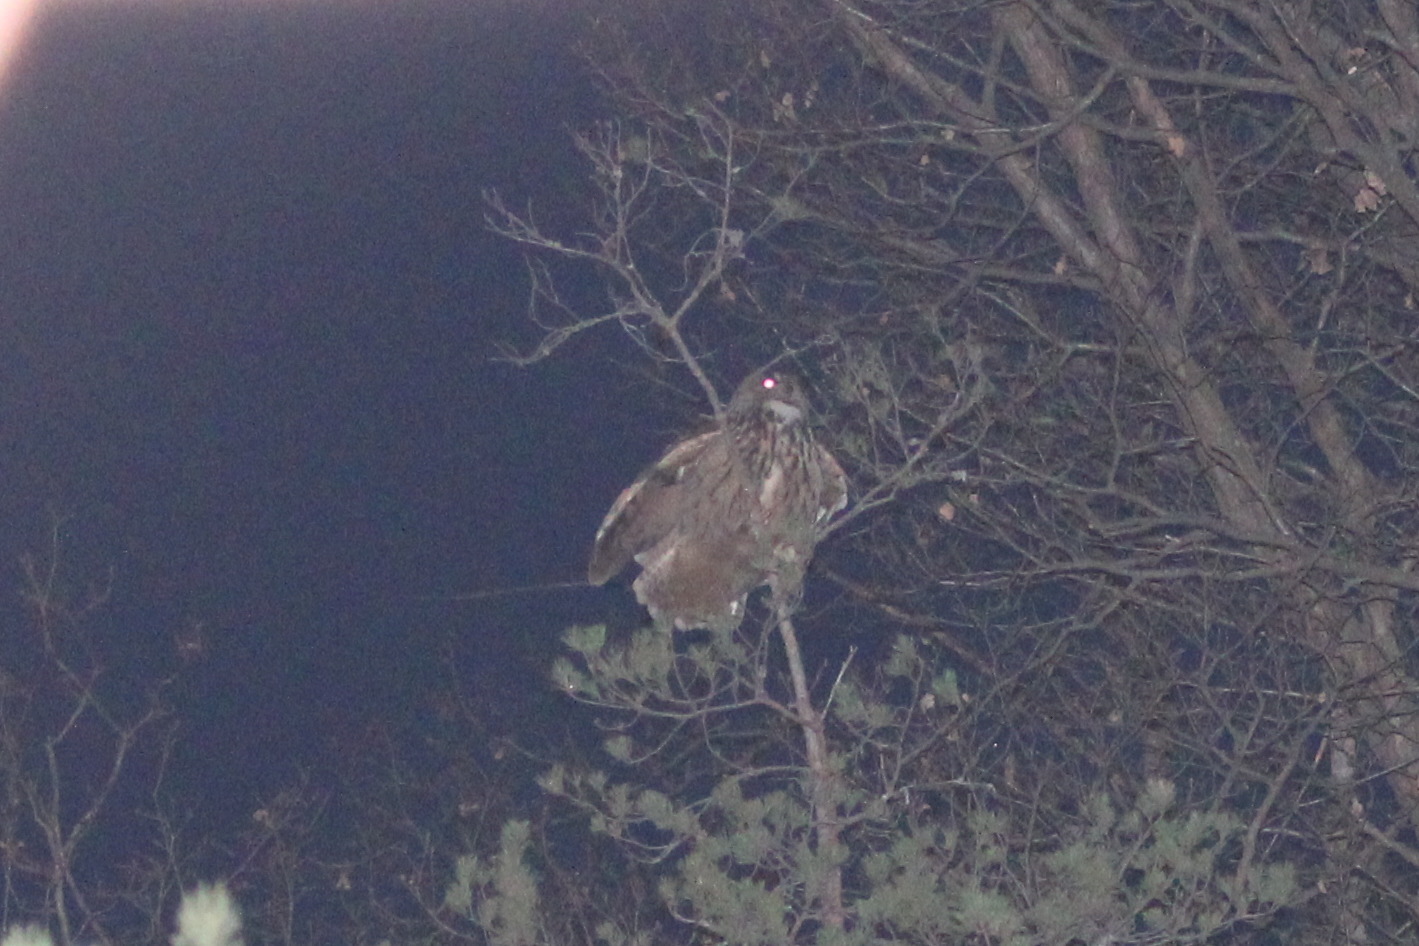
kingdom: Animalia
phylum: Chordata
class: Aves
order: Strigiformes
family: Strigidae
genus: Bubo
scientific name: Bubo bubo
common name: Eurasian eagle-owl
